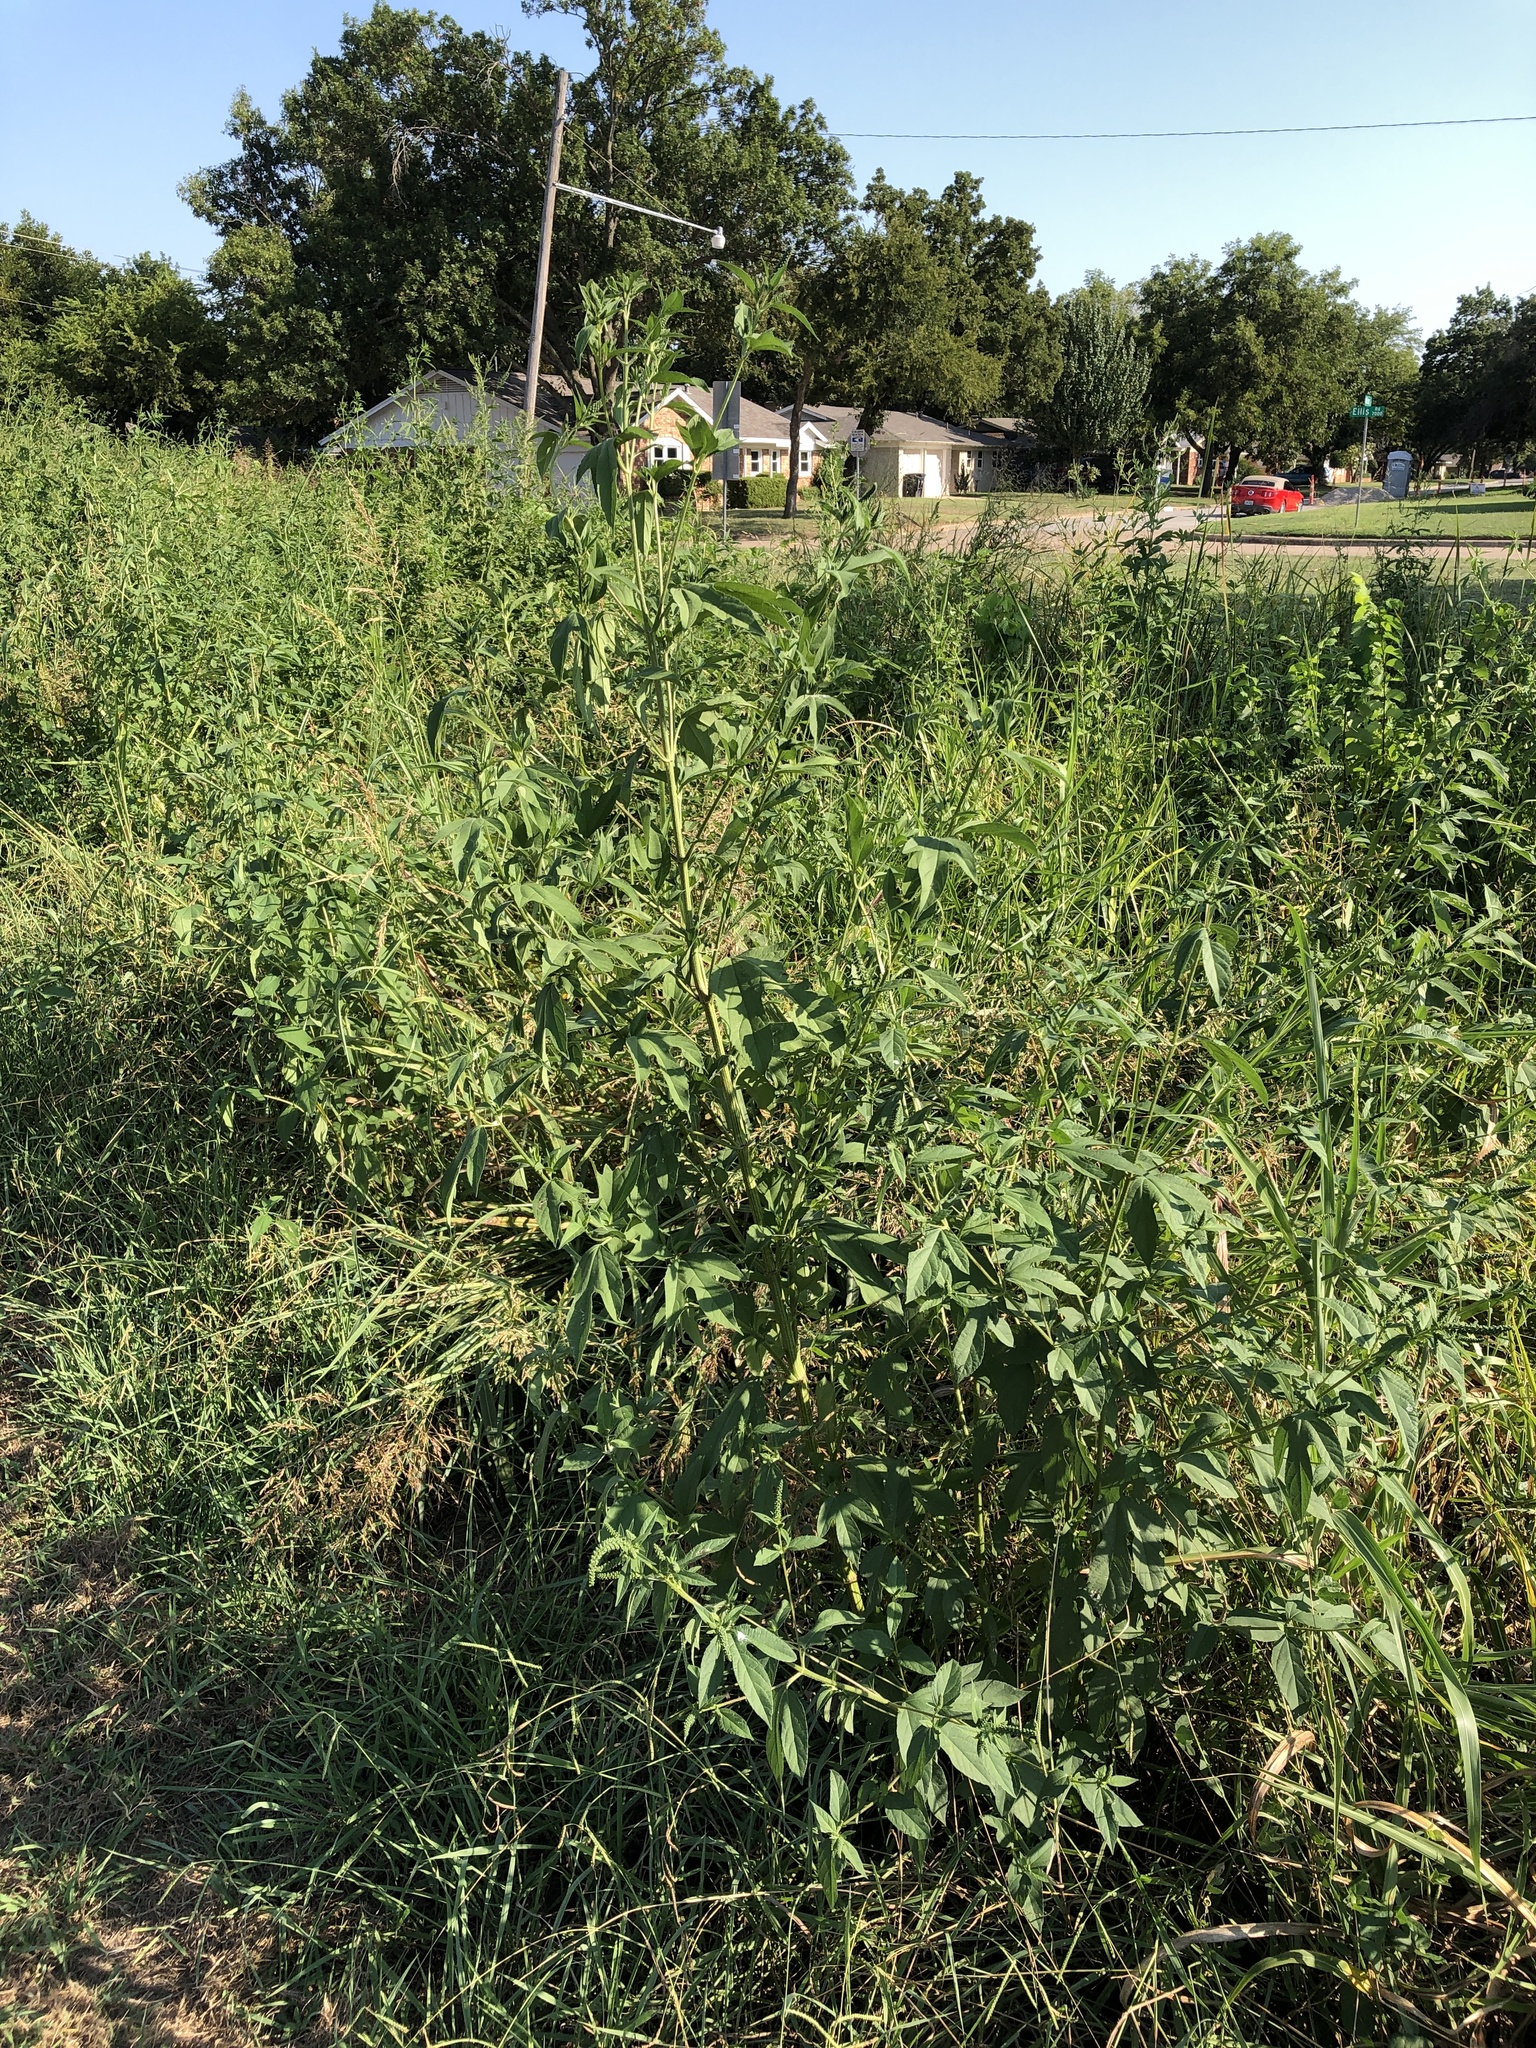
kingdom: Plantae
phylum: Tracheophyta
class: Magnoliopsida
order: Asterales
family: Asteraceae
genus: Ambrosia
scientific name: Ambrosia trifida
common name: Giant ragweed
